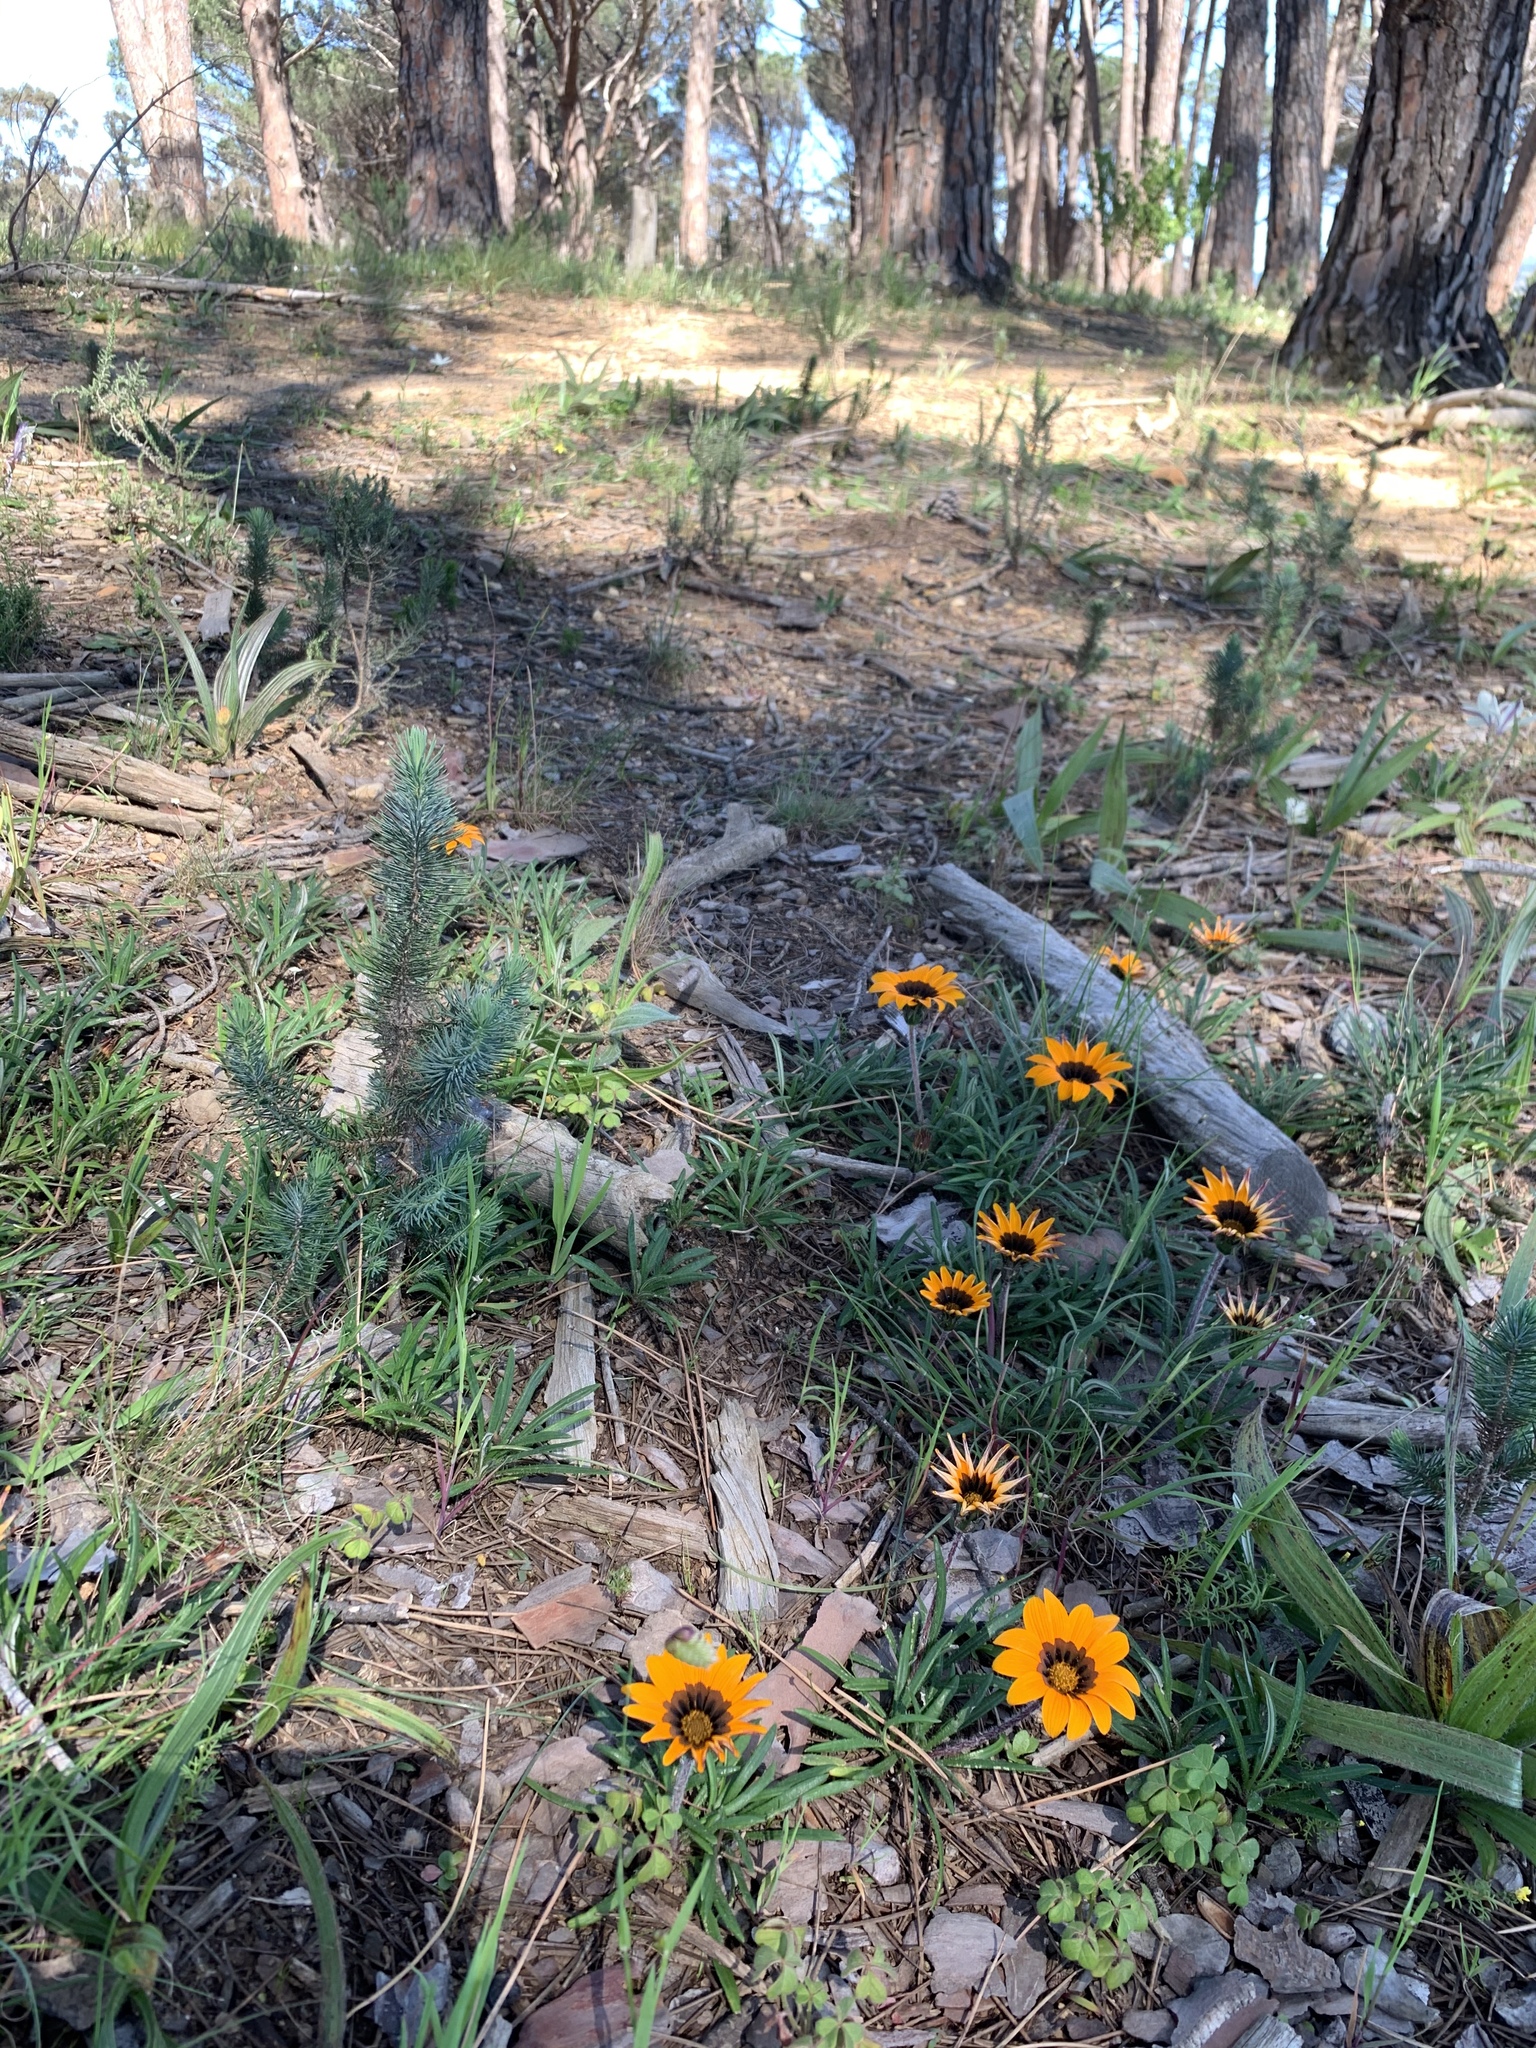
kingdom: Plantae
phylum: Tracheophyta
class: Magnoliopsida
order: Asterales
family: Asteraceae
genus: Gazania
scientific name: Gazania ciliaris
